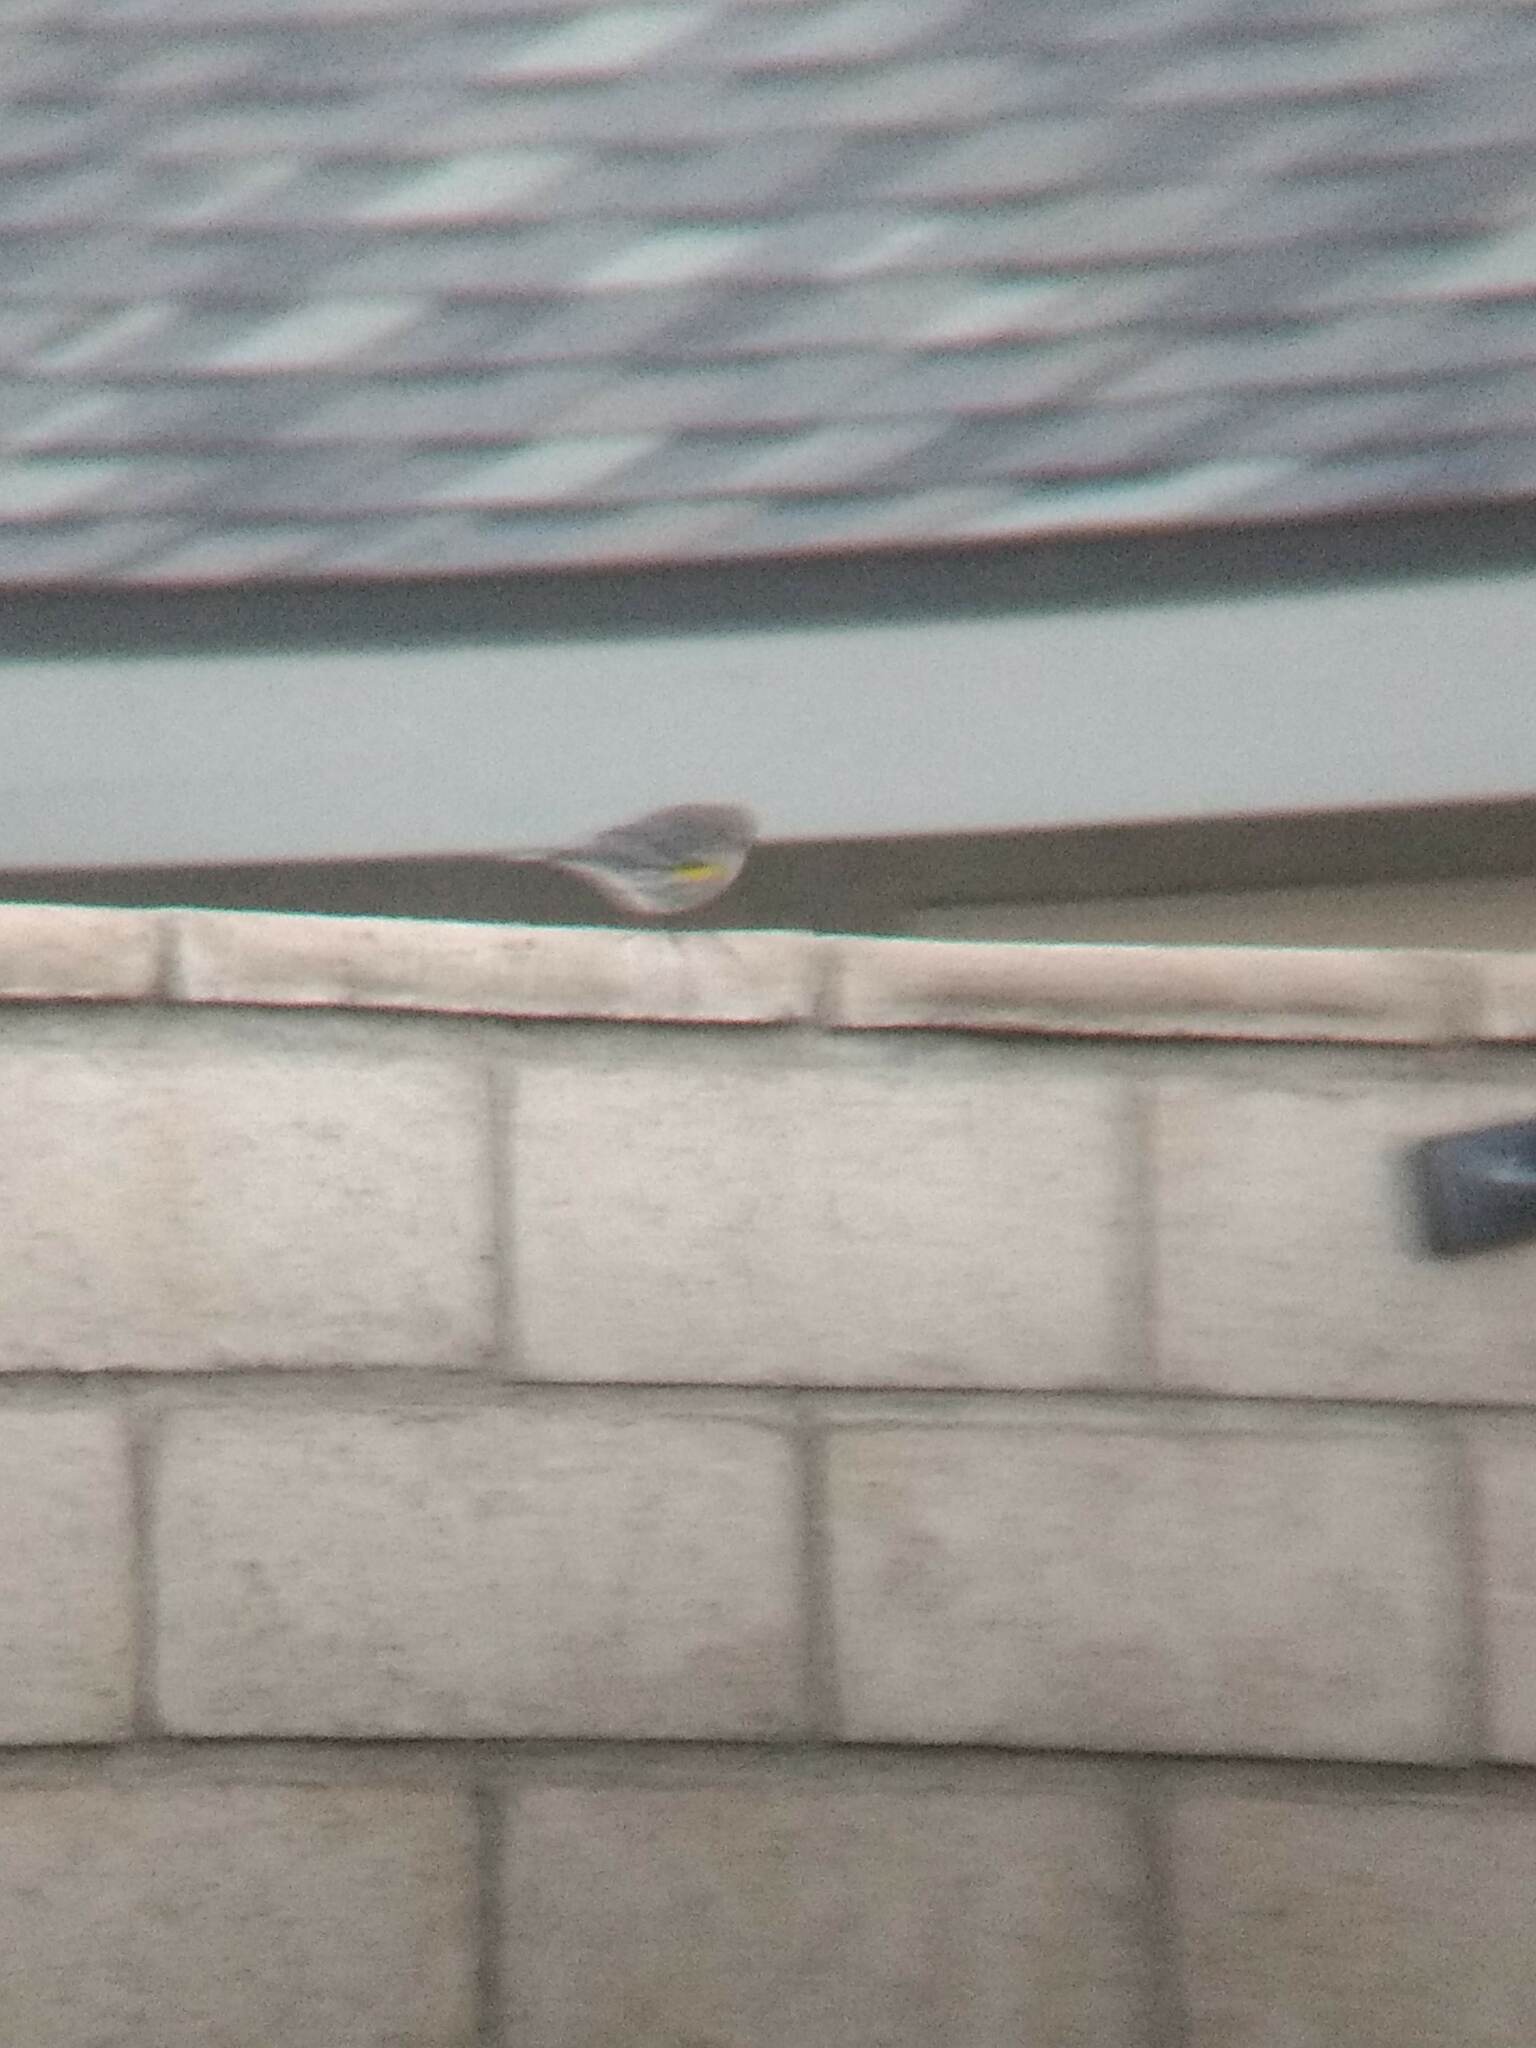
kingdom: Animalia
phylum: Chordata
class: Aves
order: Passeriformes
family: Parulidae
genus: Setophaga
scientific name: Setophaga coronata
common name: Myrtle warbler
